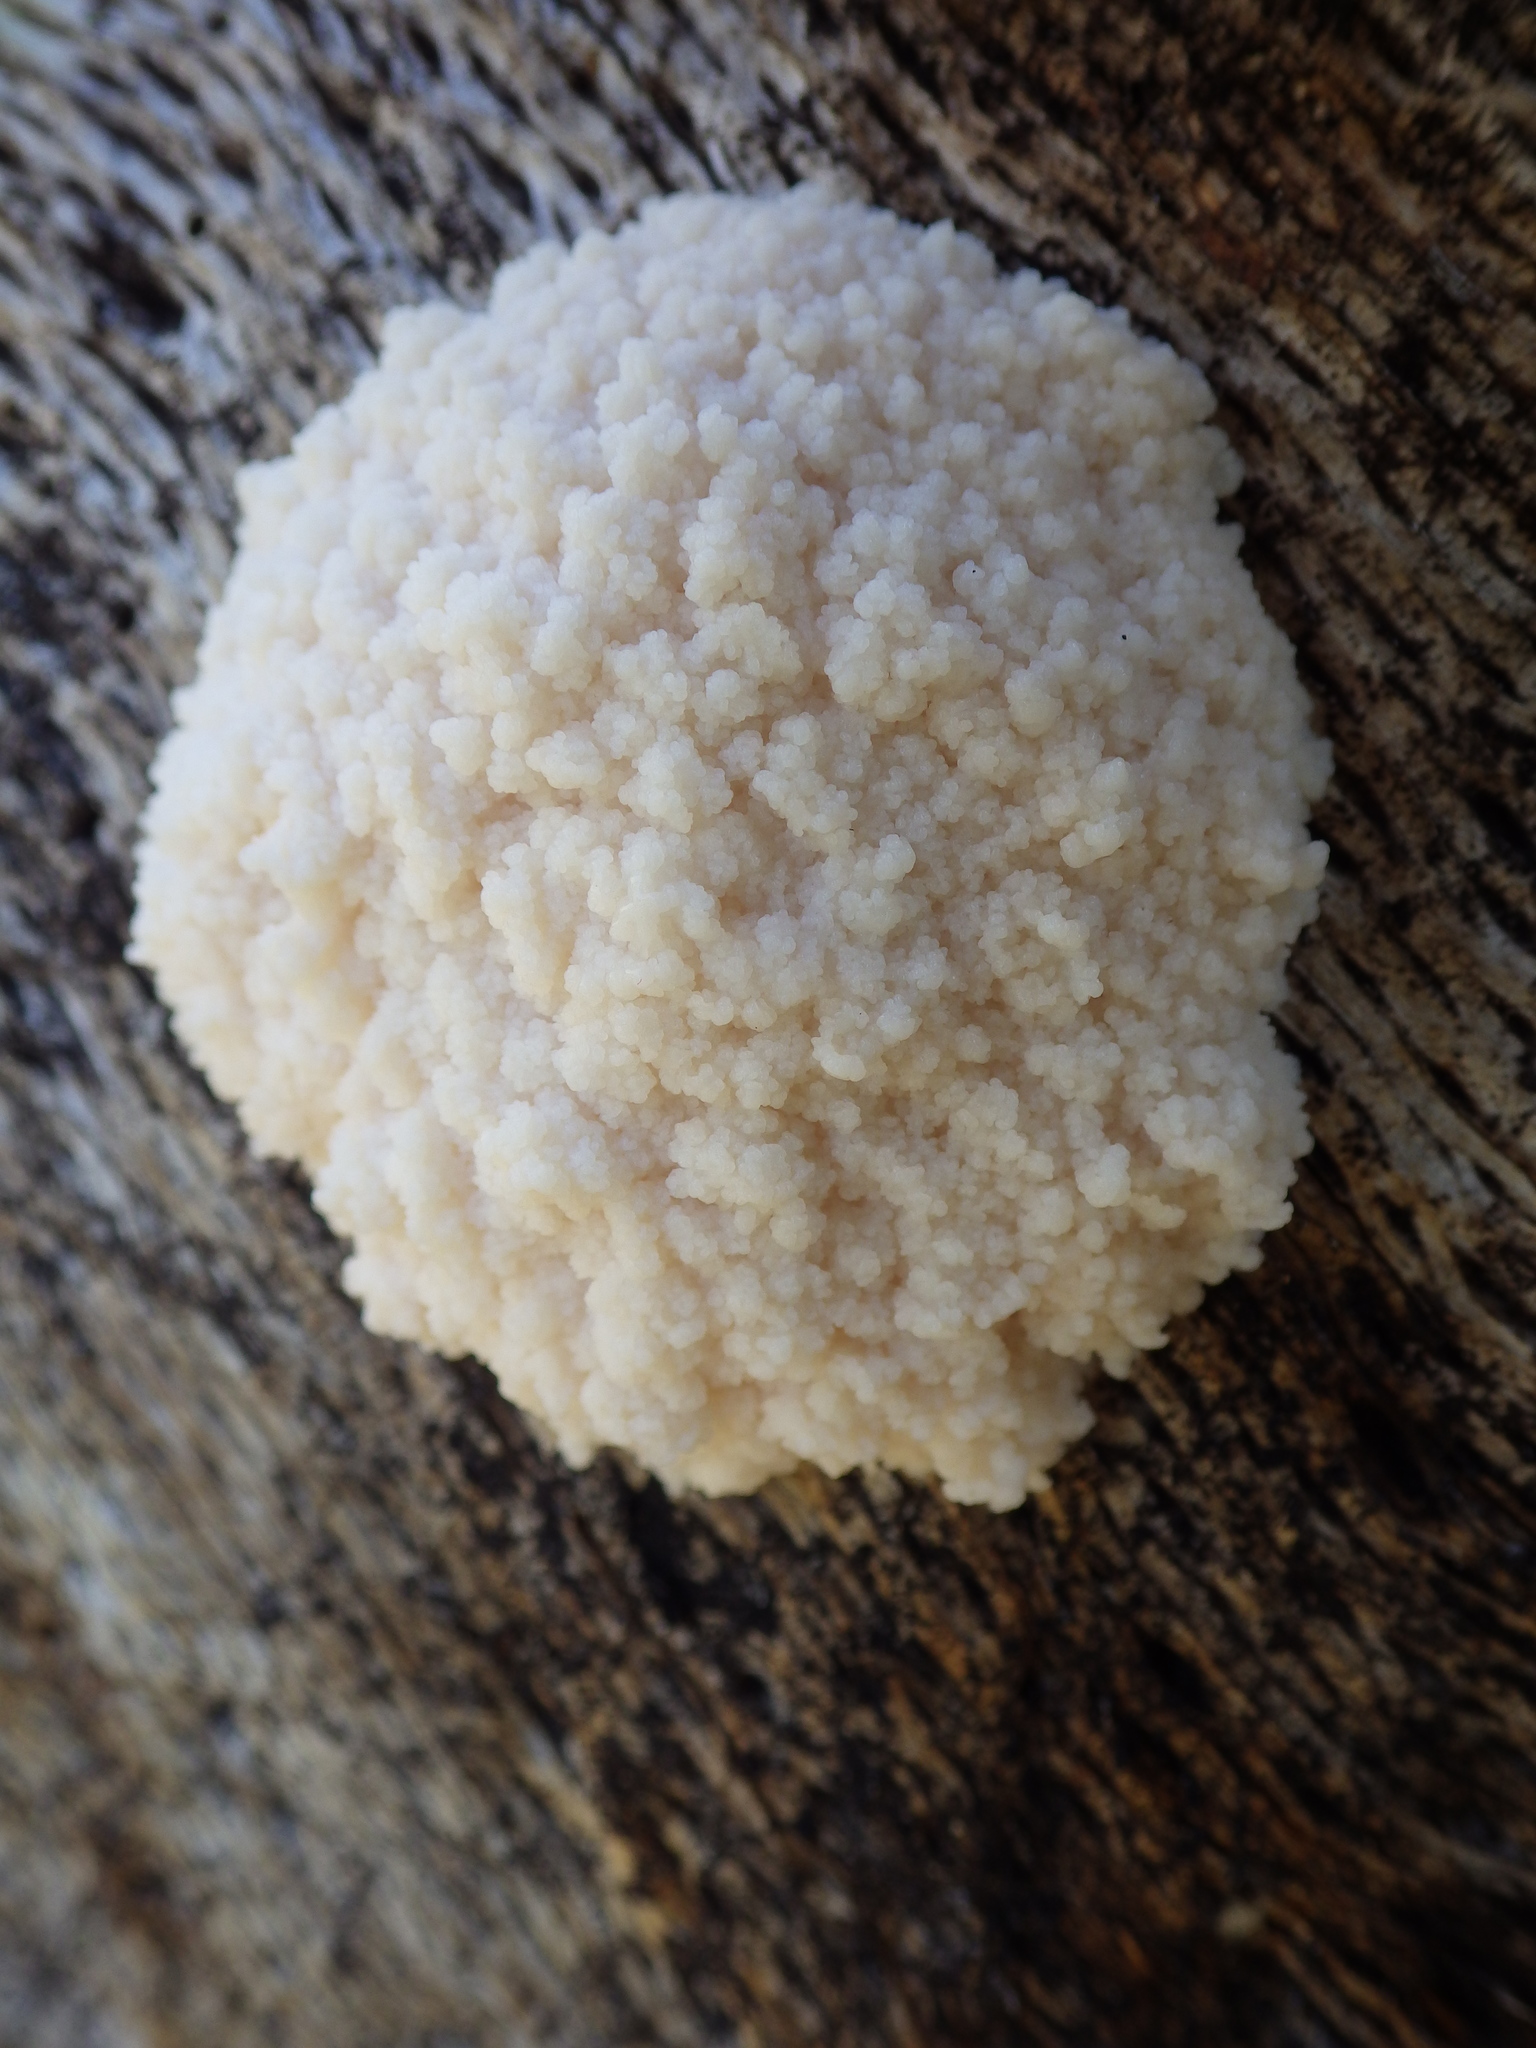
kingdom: Protozoa
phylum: Mycetozoa
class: Myxomycetes
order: Physarales
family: Physaraceae
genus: Didymium
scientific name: Didymium
